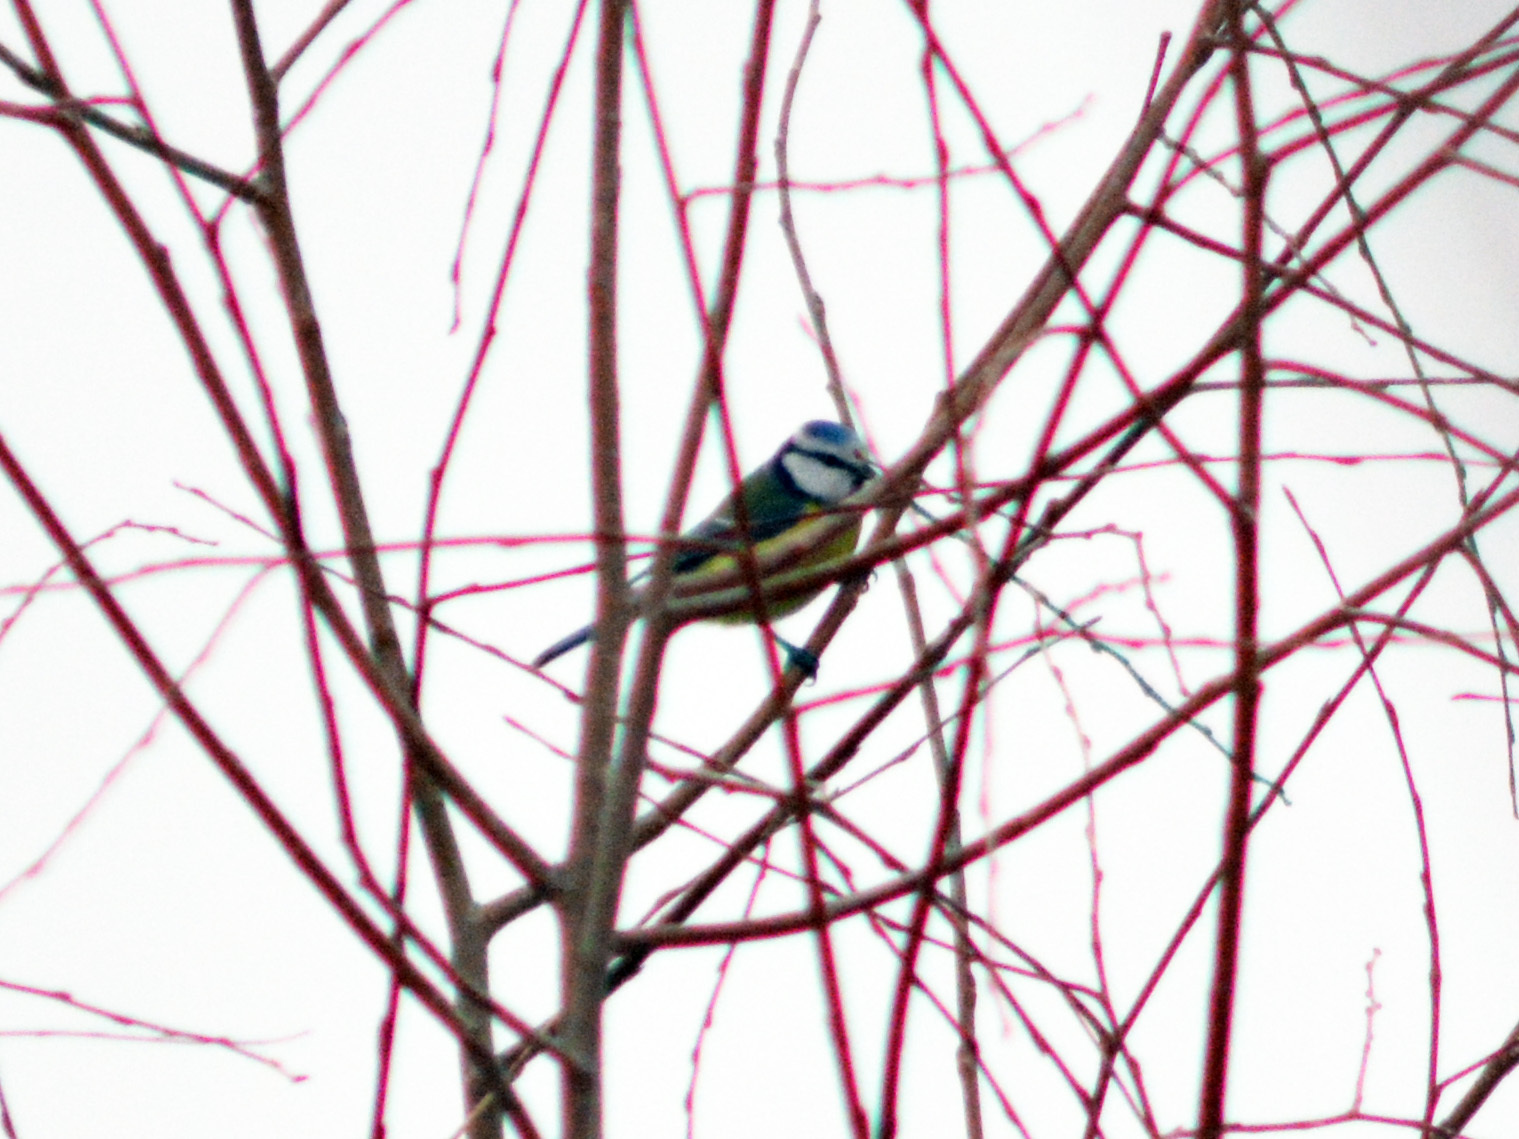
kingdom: Animalia
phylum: Chordata
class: Aves
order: Passeriformes
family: Paridae
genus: Cyanistes
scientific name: Cyanistes caeruleus
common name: Eurasian blue tit
